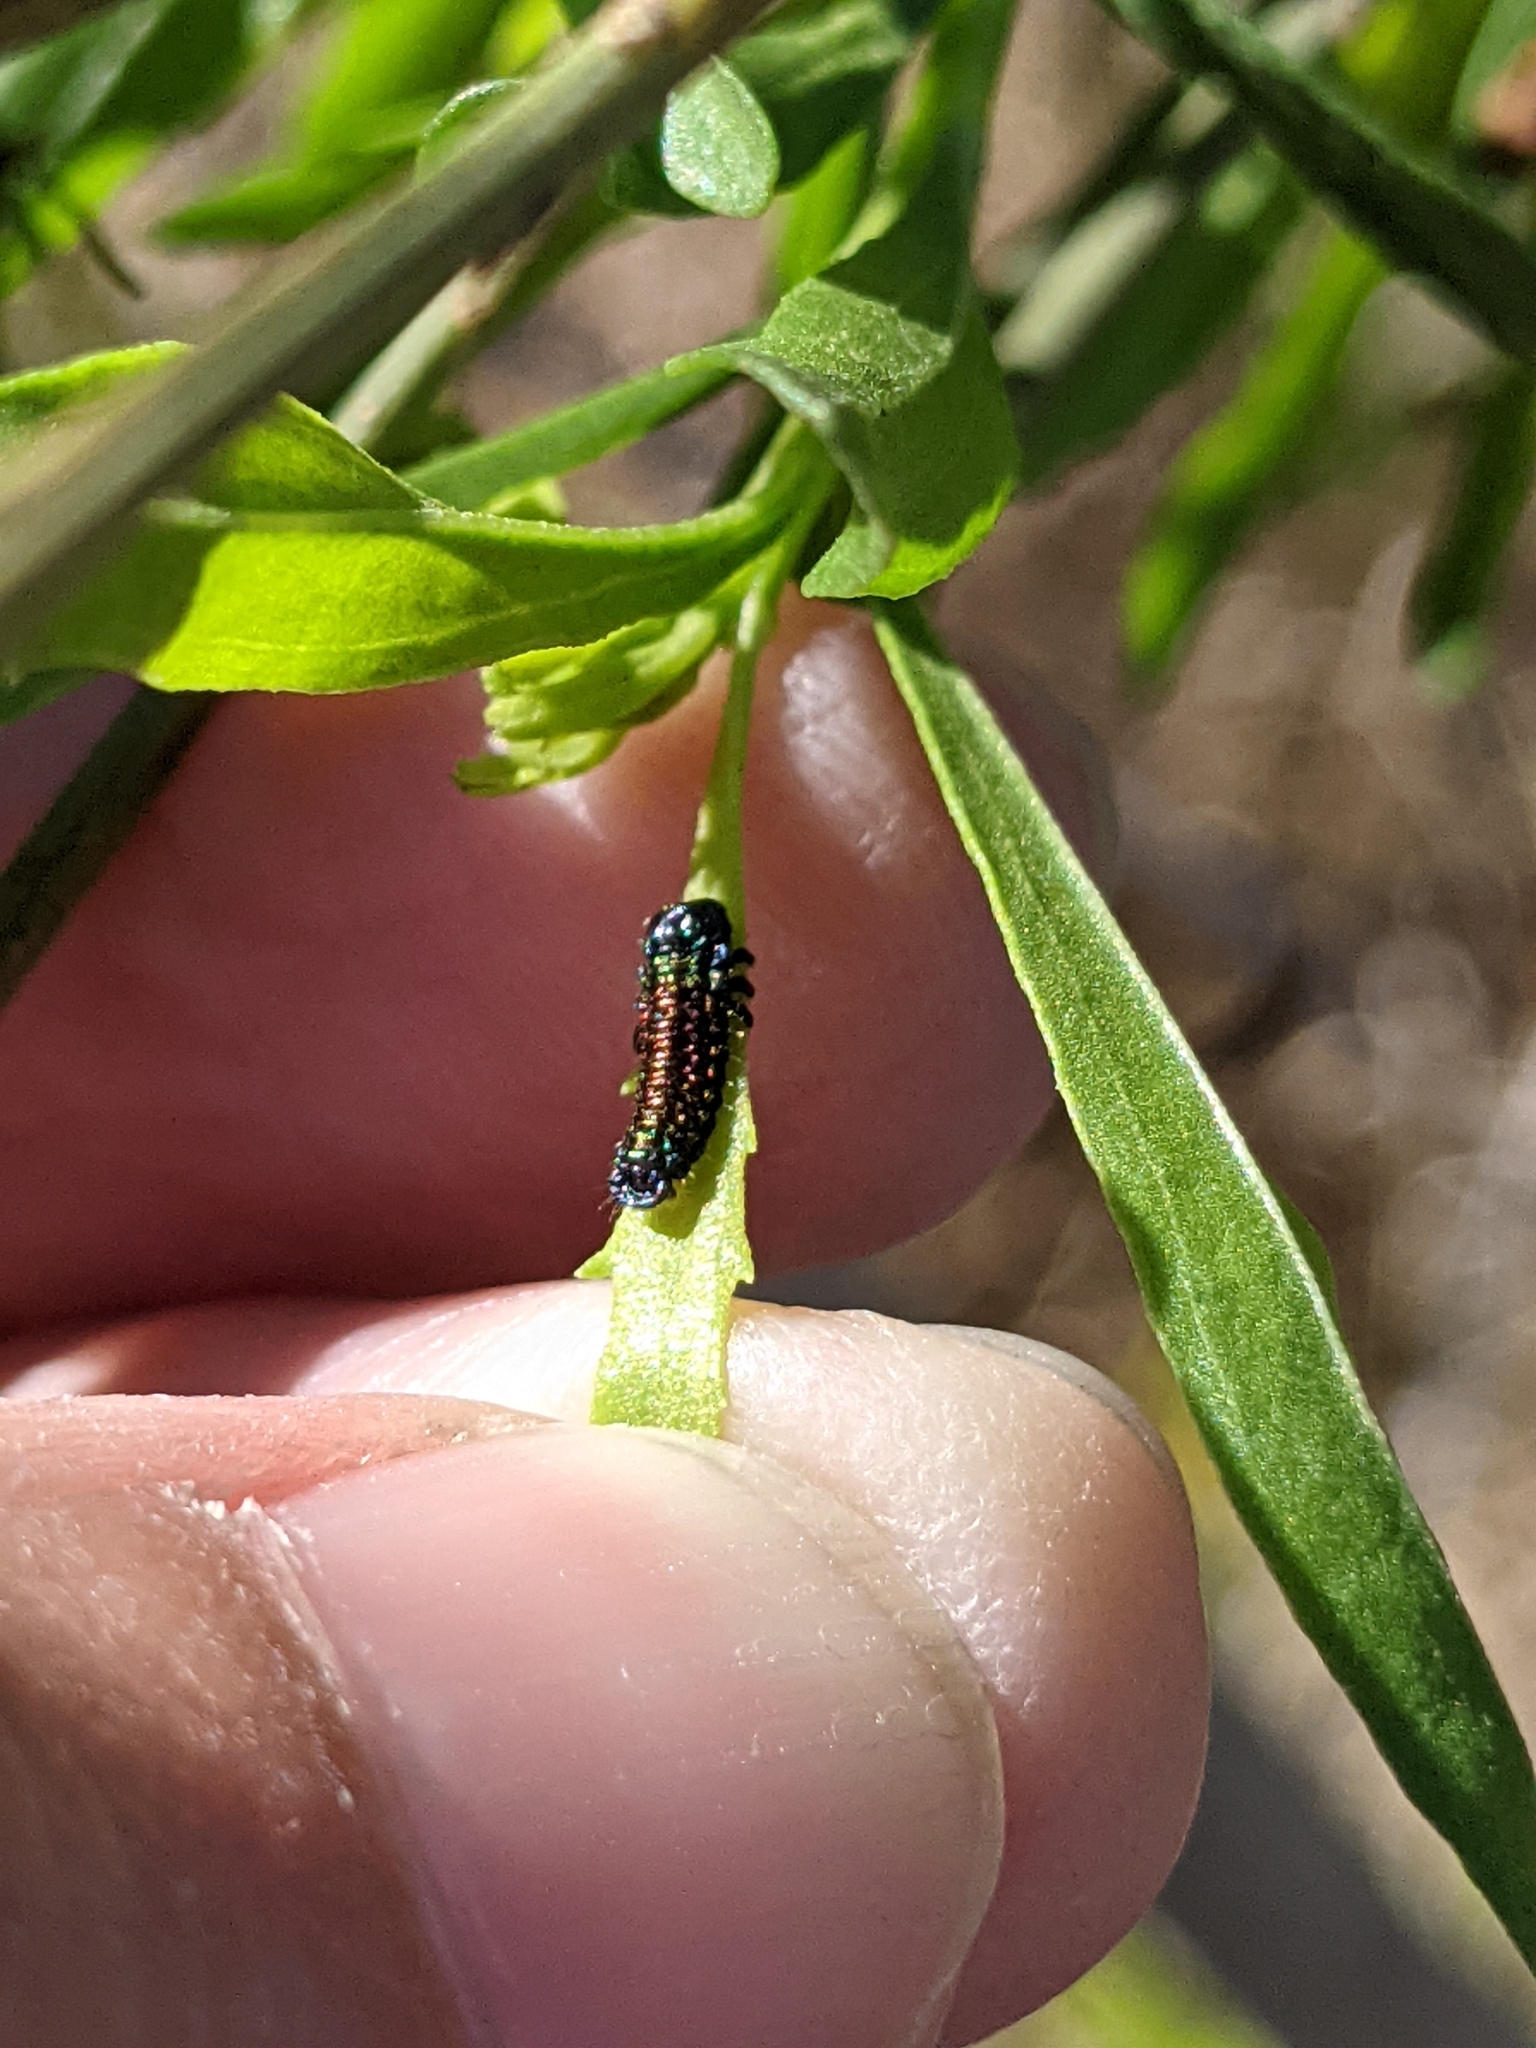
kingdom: Animalia
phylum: Arthropoda
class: Insecta
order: Coleoptera
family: Chrysomelidae
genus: Trirhabda
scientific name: Trirhabda bacharidis
